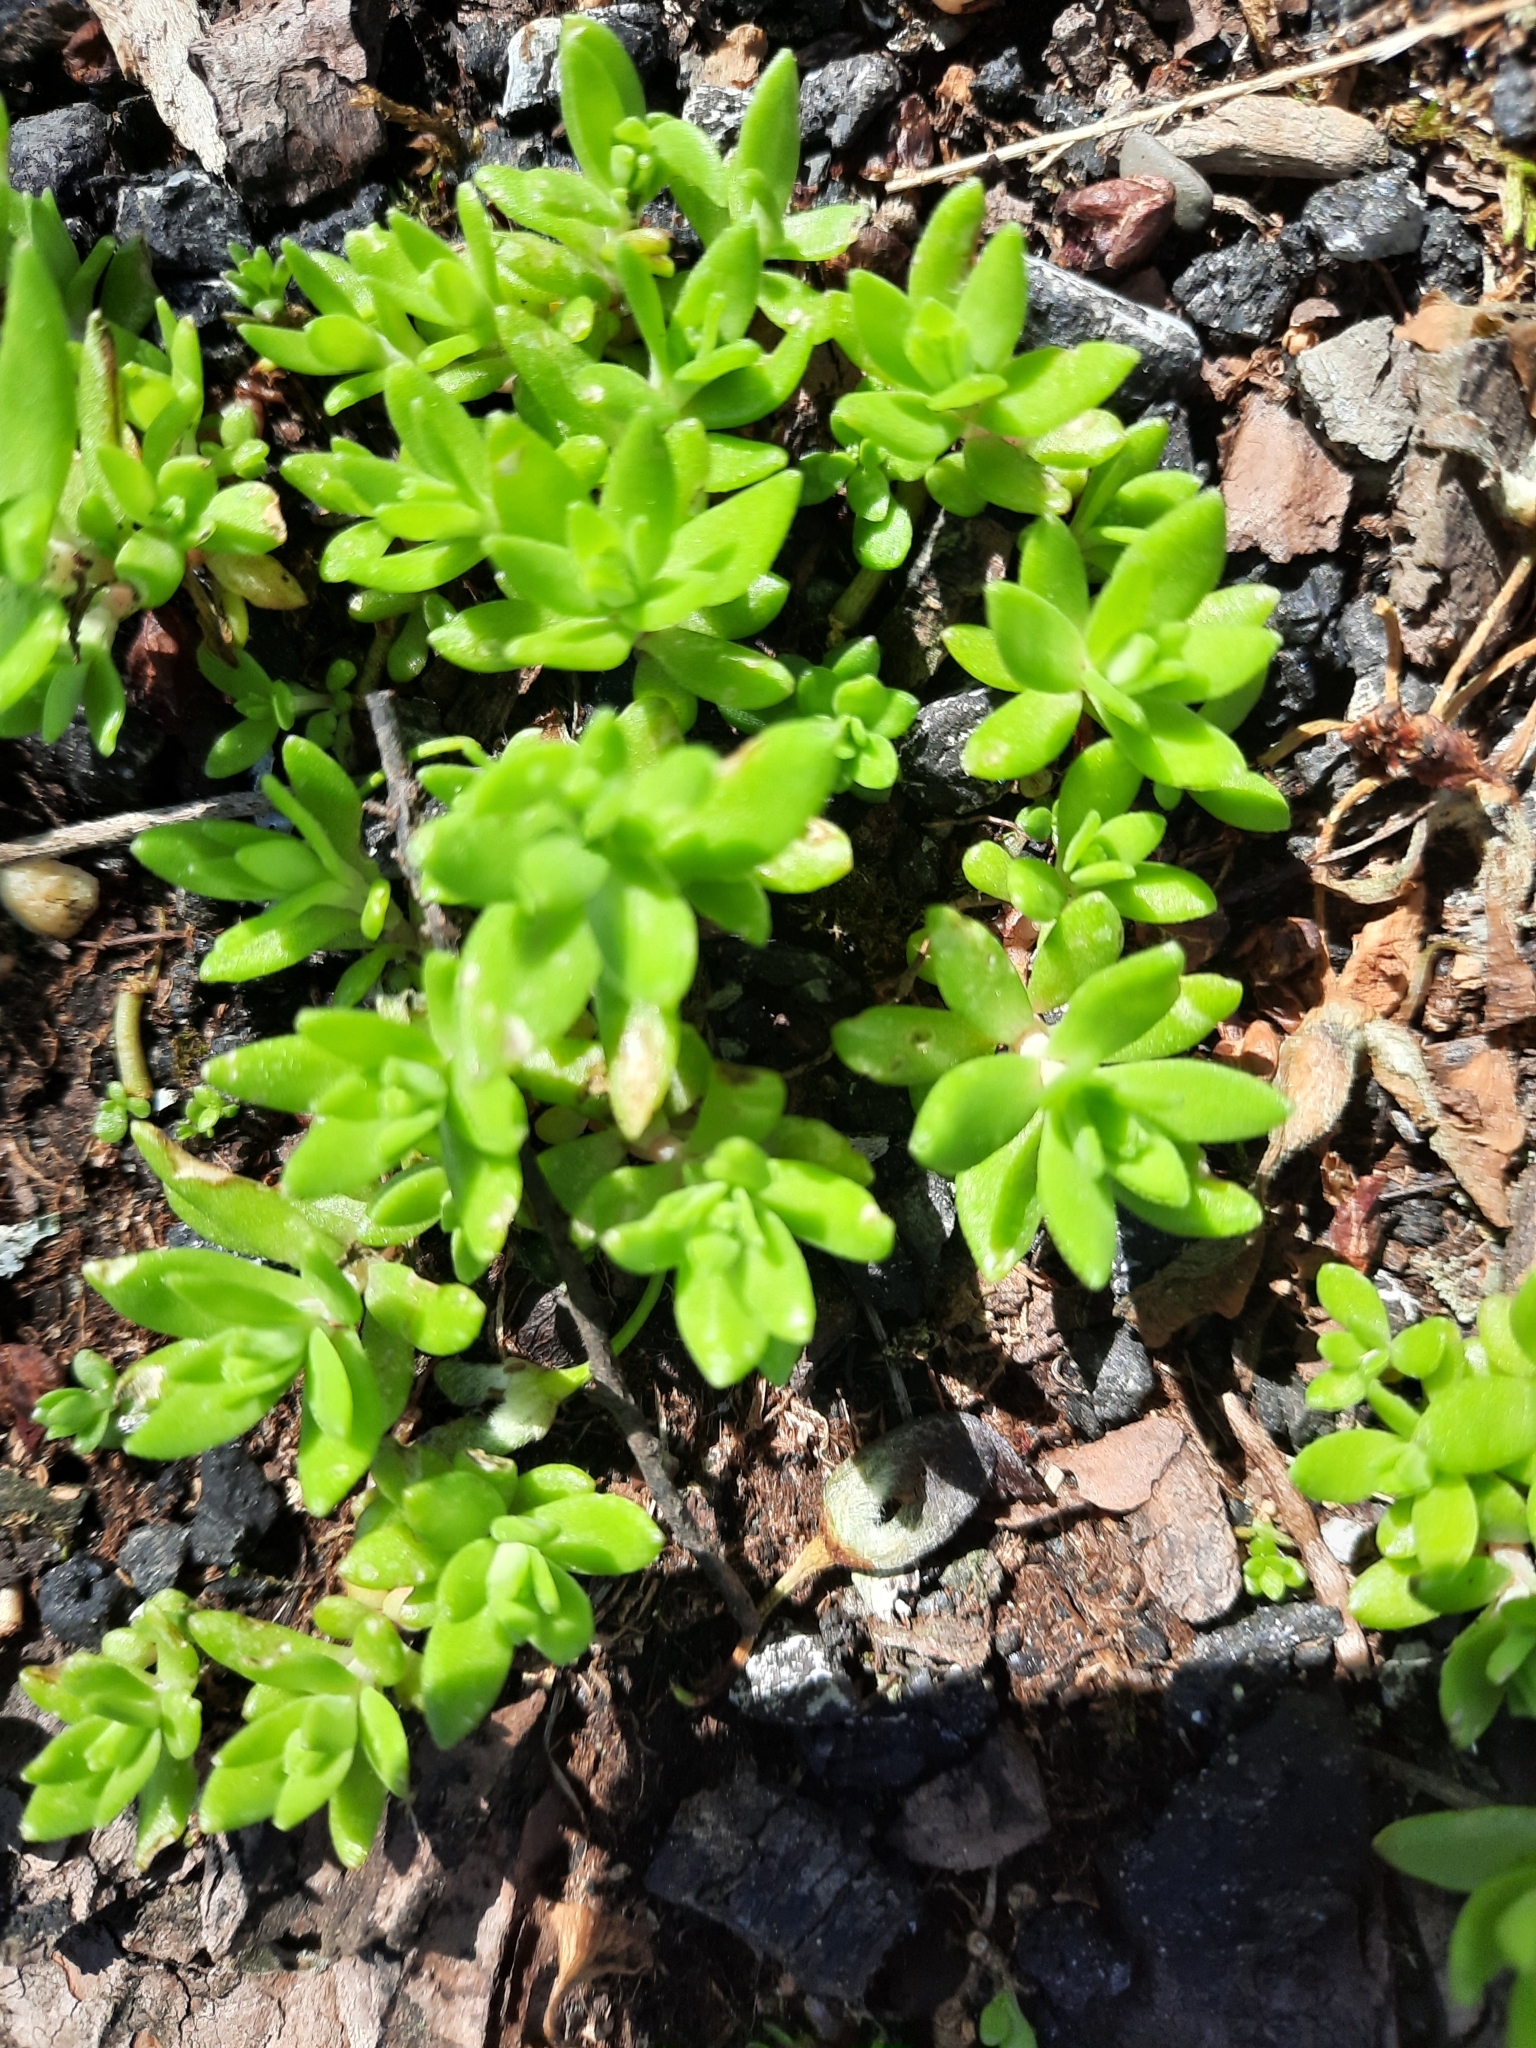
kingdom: Plantae
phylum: Tracheophyta
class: Magnoliopsida
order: Saxifragales
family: Crassulaceae
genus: Sedum
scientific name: Sedum sarmentosum
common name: Stringy stonecrop
